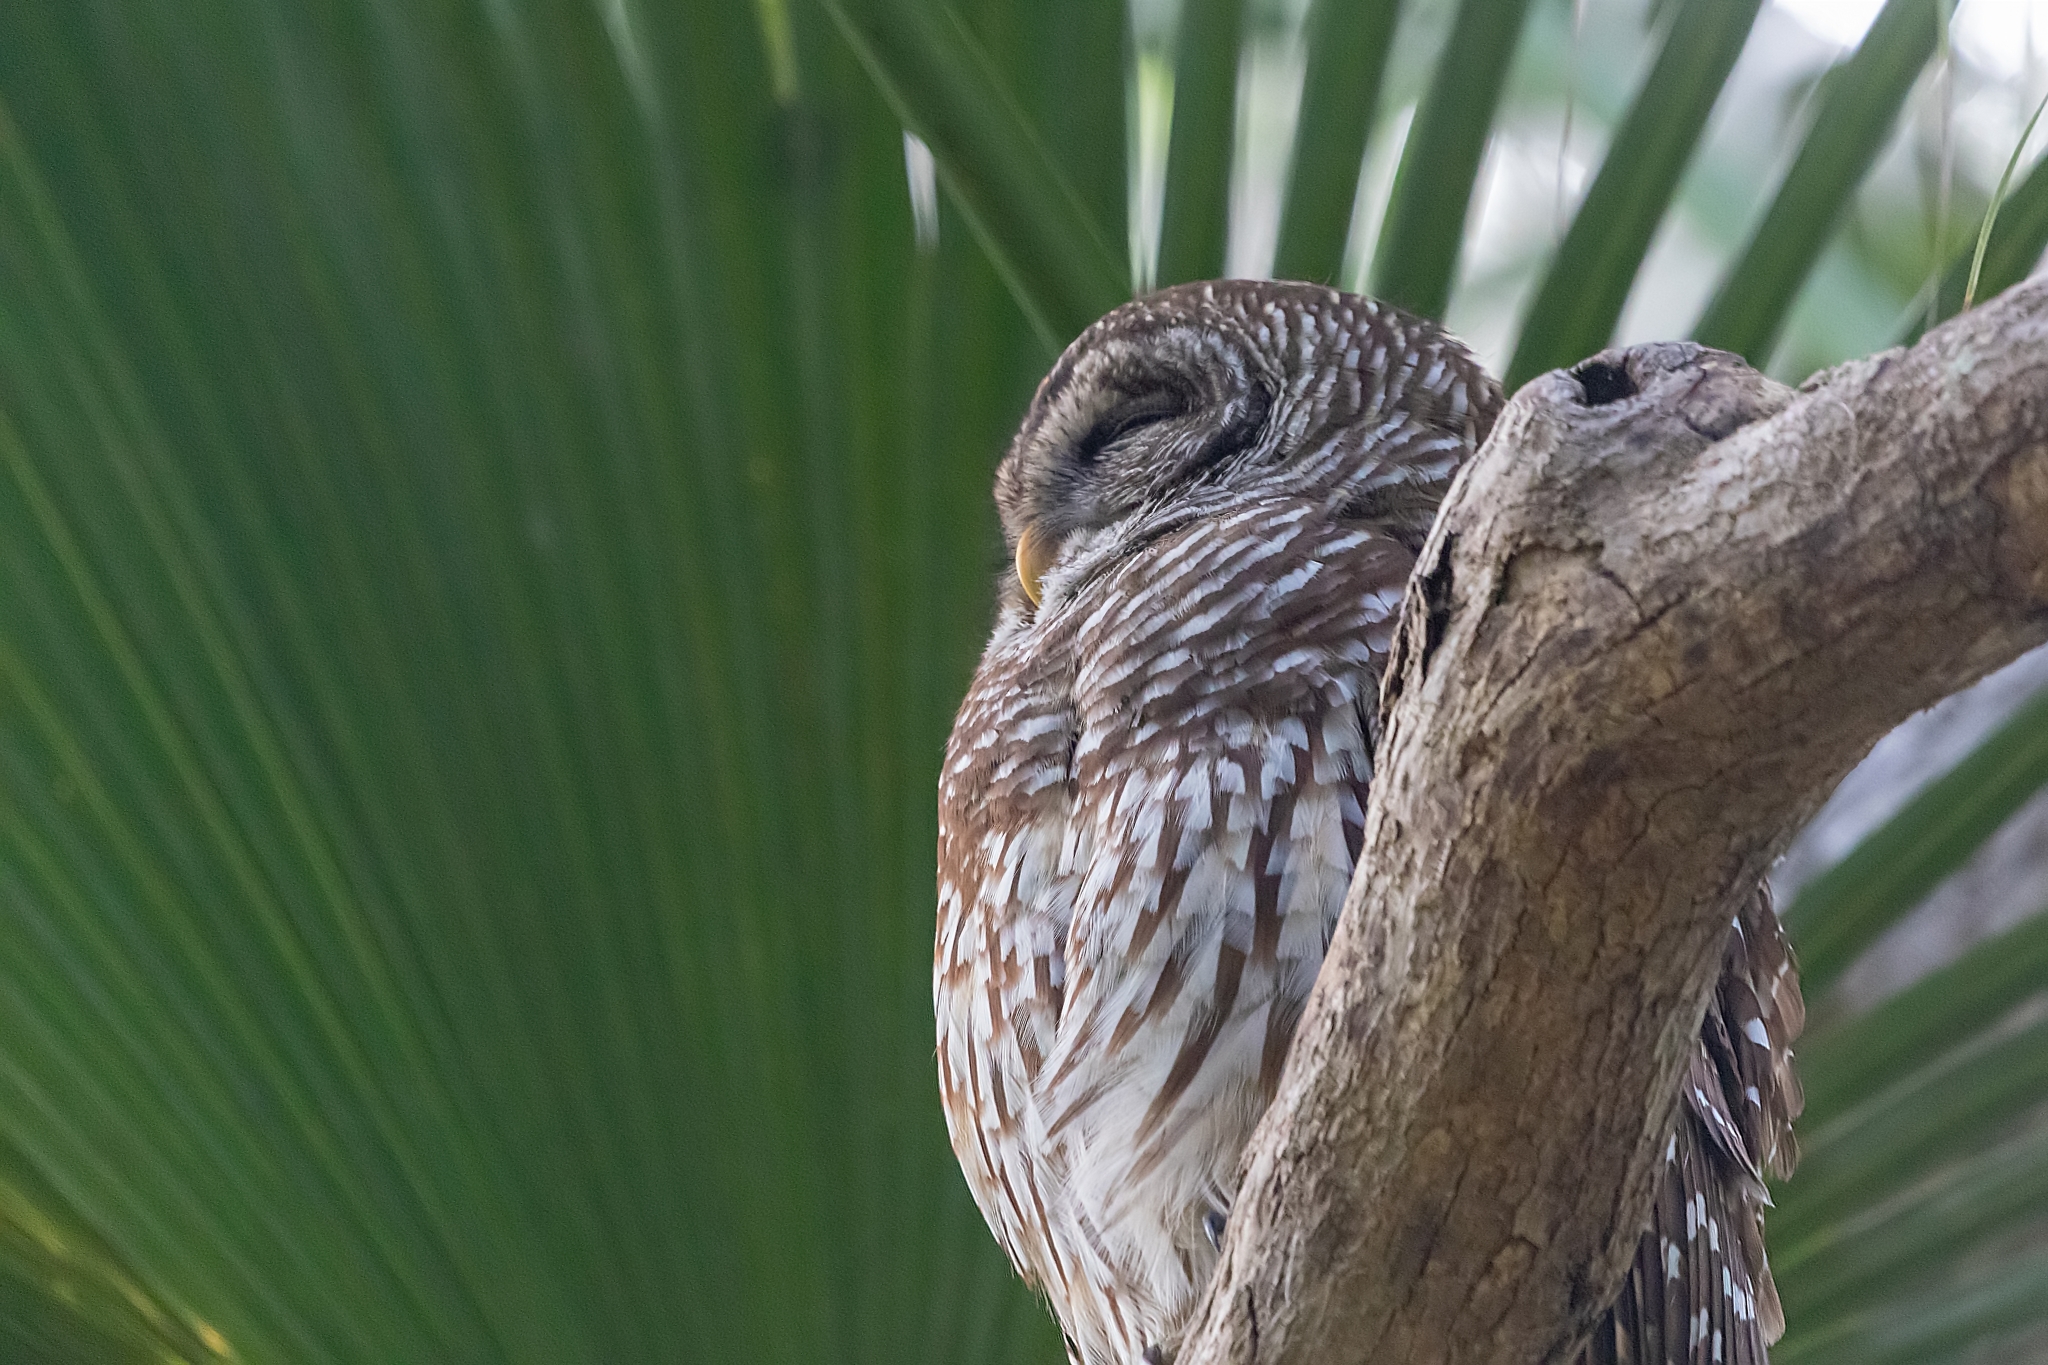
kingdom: Animalia
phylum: Chordata
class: Aves
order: Strigiformes
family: Strigidae
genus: Strix
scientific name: Strix varia
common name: Barred owl
